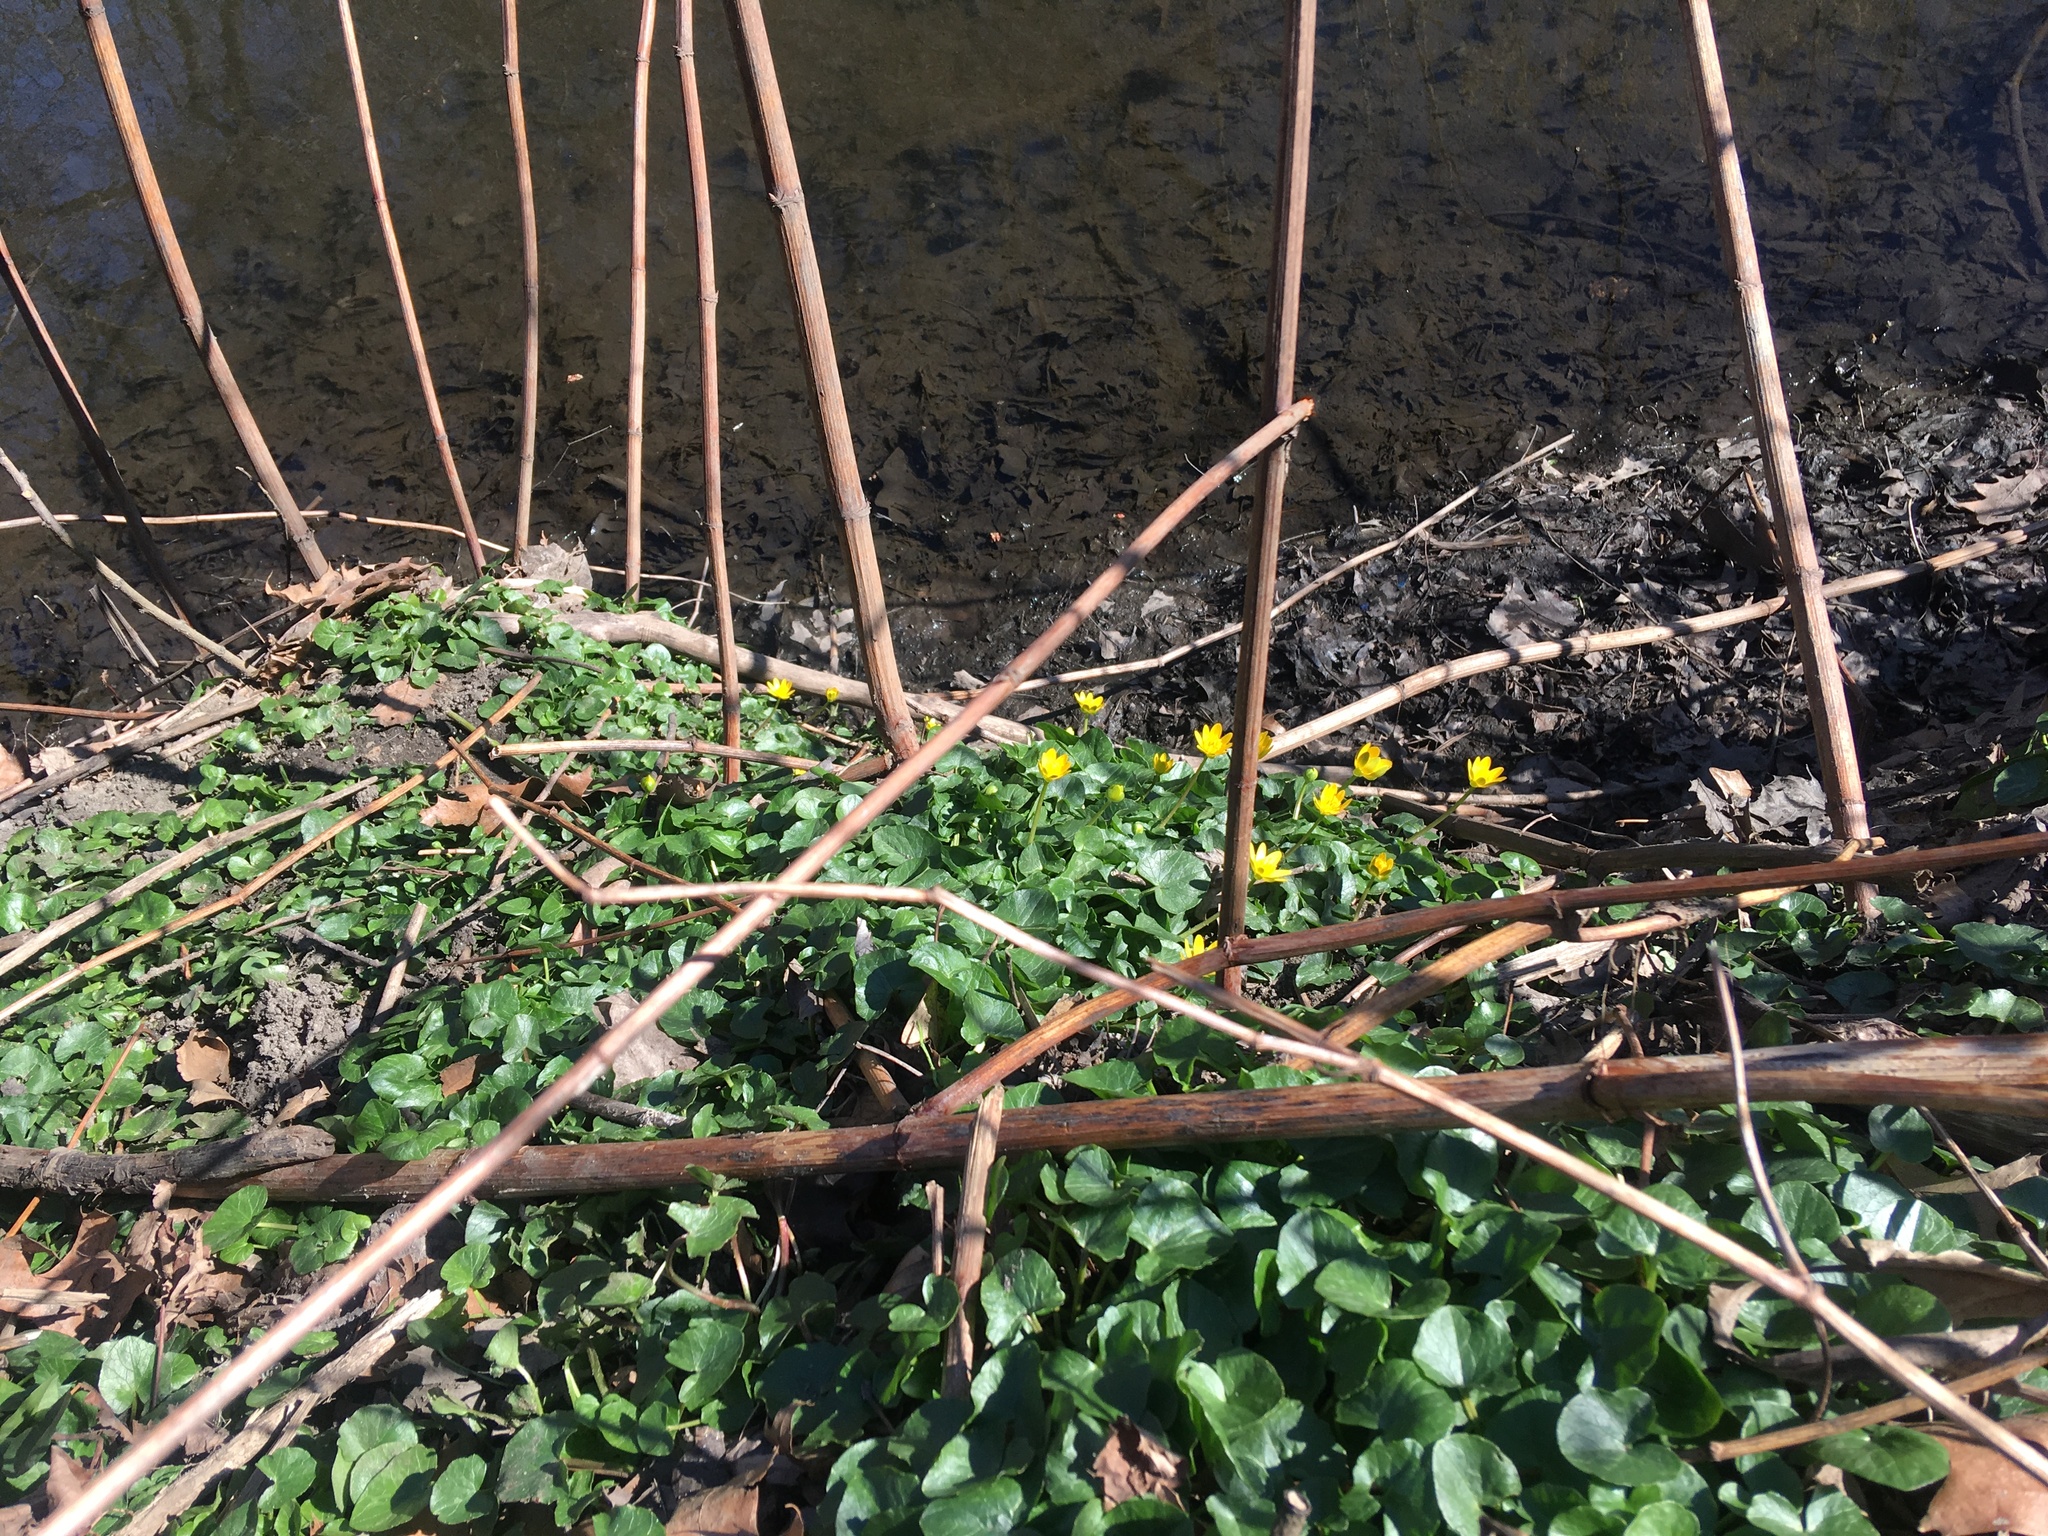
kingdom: Plantae
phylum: Tracheophyta
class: Magnoliopsida
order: Ranunculales
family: Ranunculaceae
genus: Ficaria
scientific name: Ficaria verna
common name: Lesser celandine
